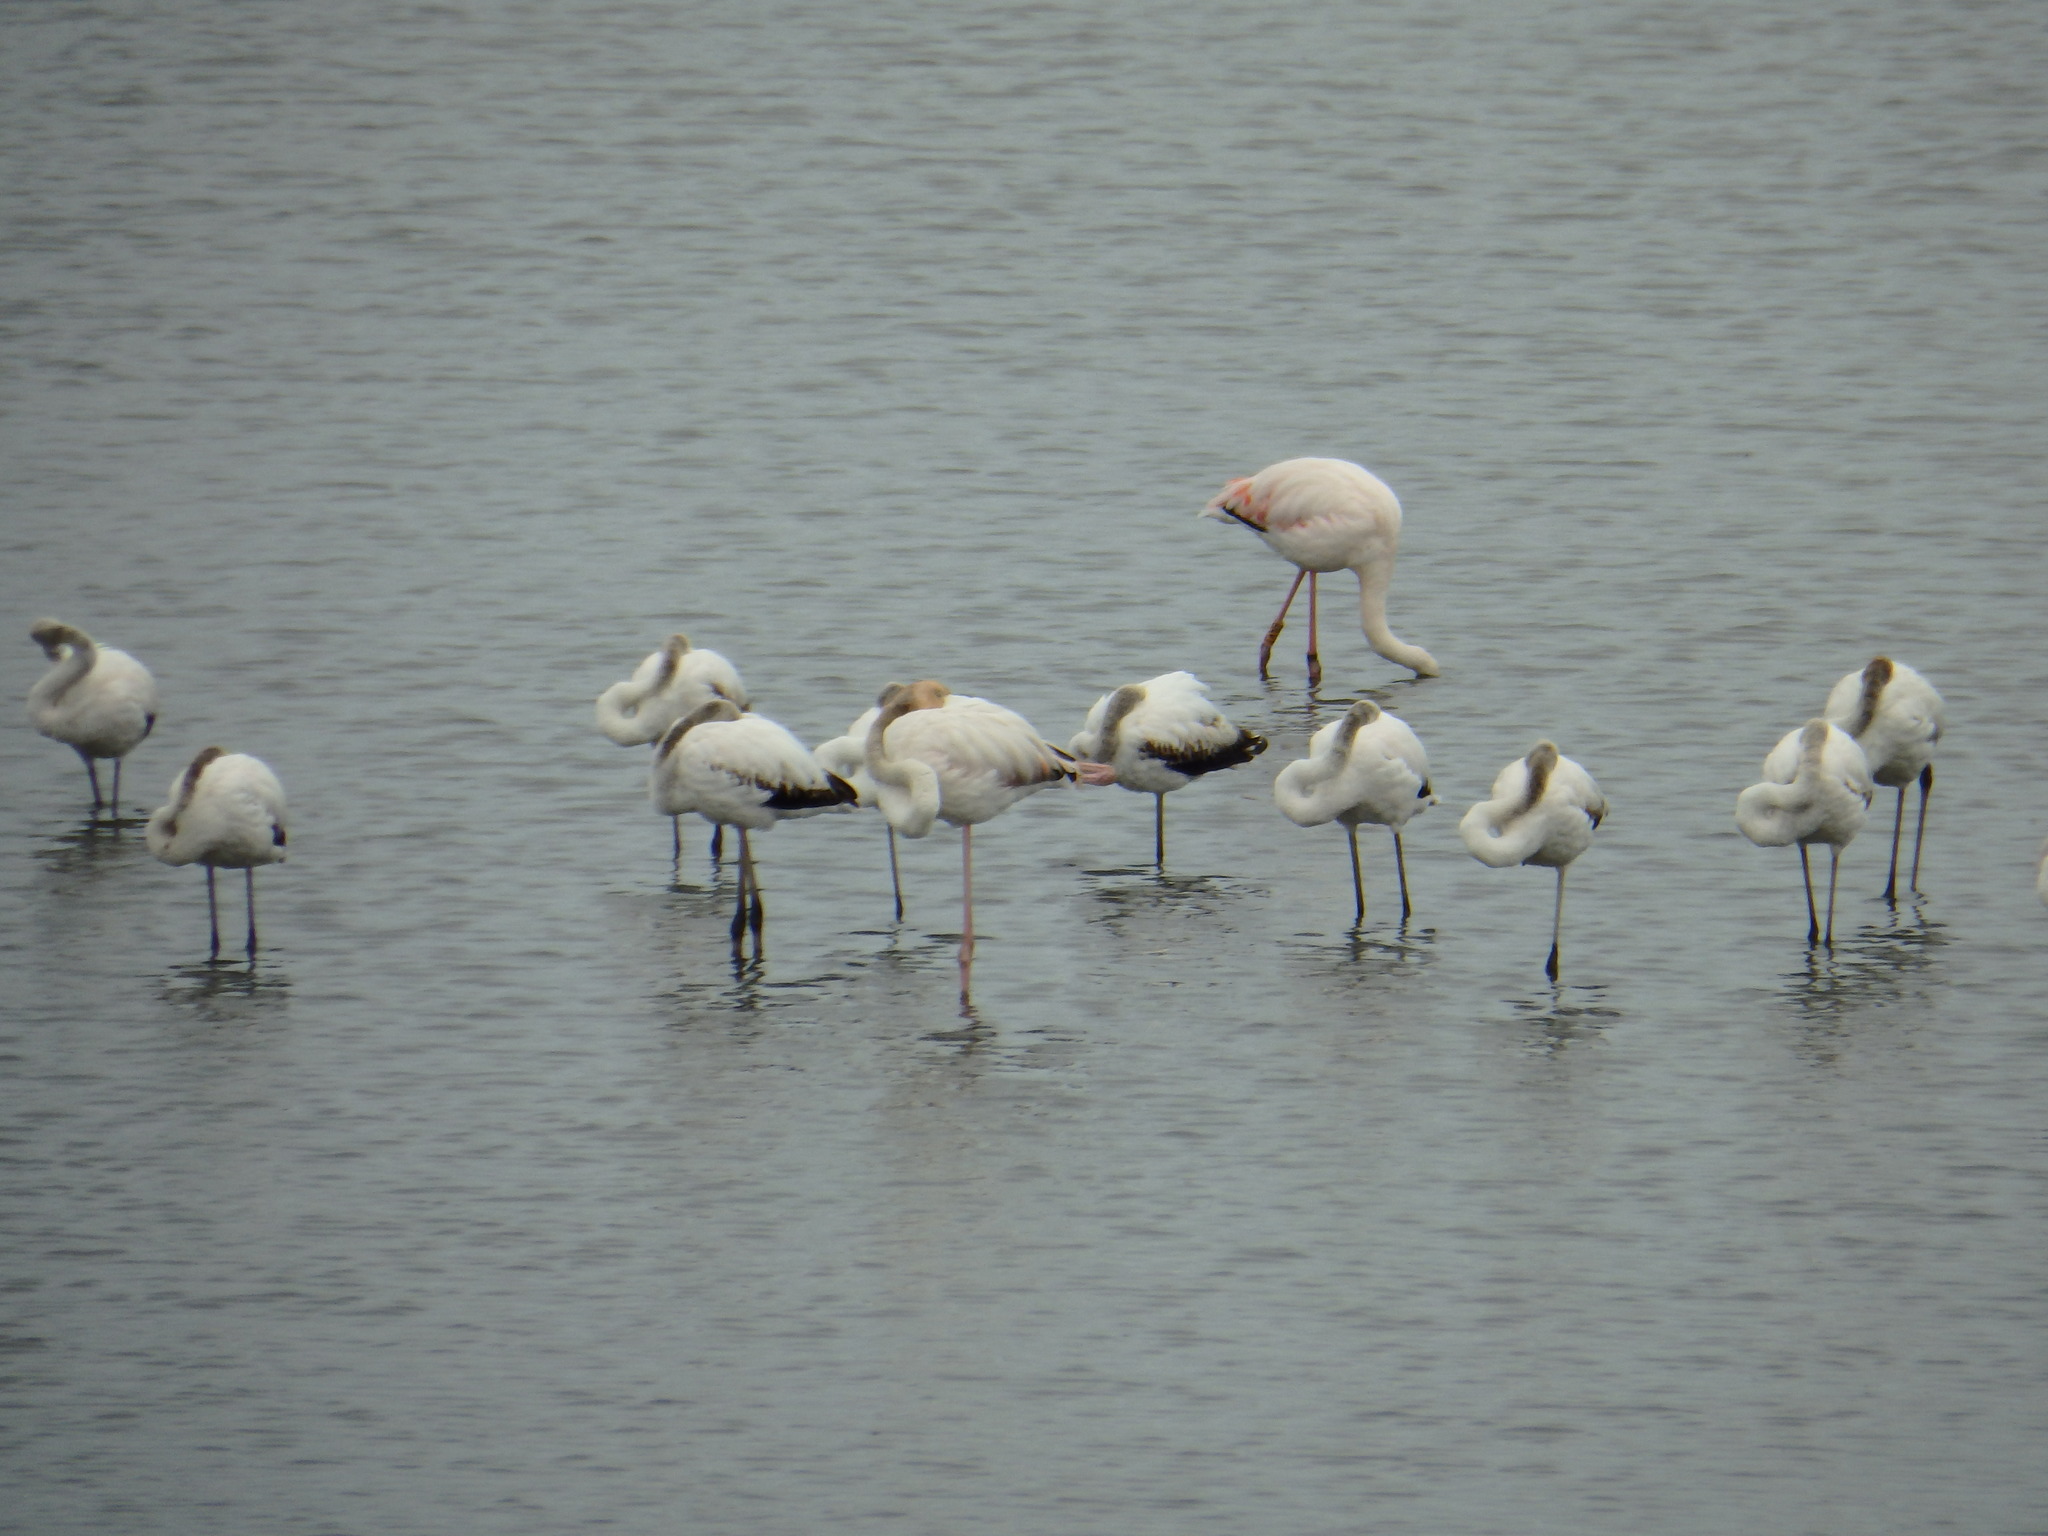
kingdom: Animalia
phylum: Chordata
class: Aves
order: Phoenicopteriformes
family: Phoenicopteridae
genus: Phoenicopterus
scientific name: Phoenicopterus roseus
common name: Greater flamingo
